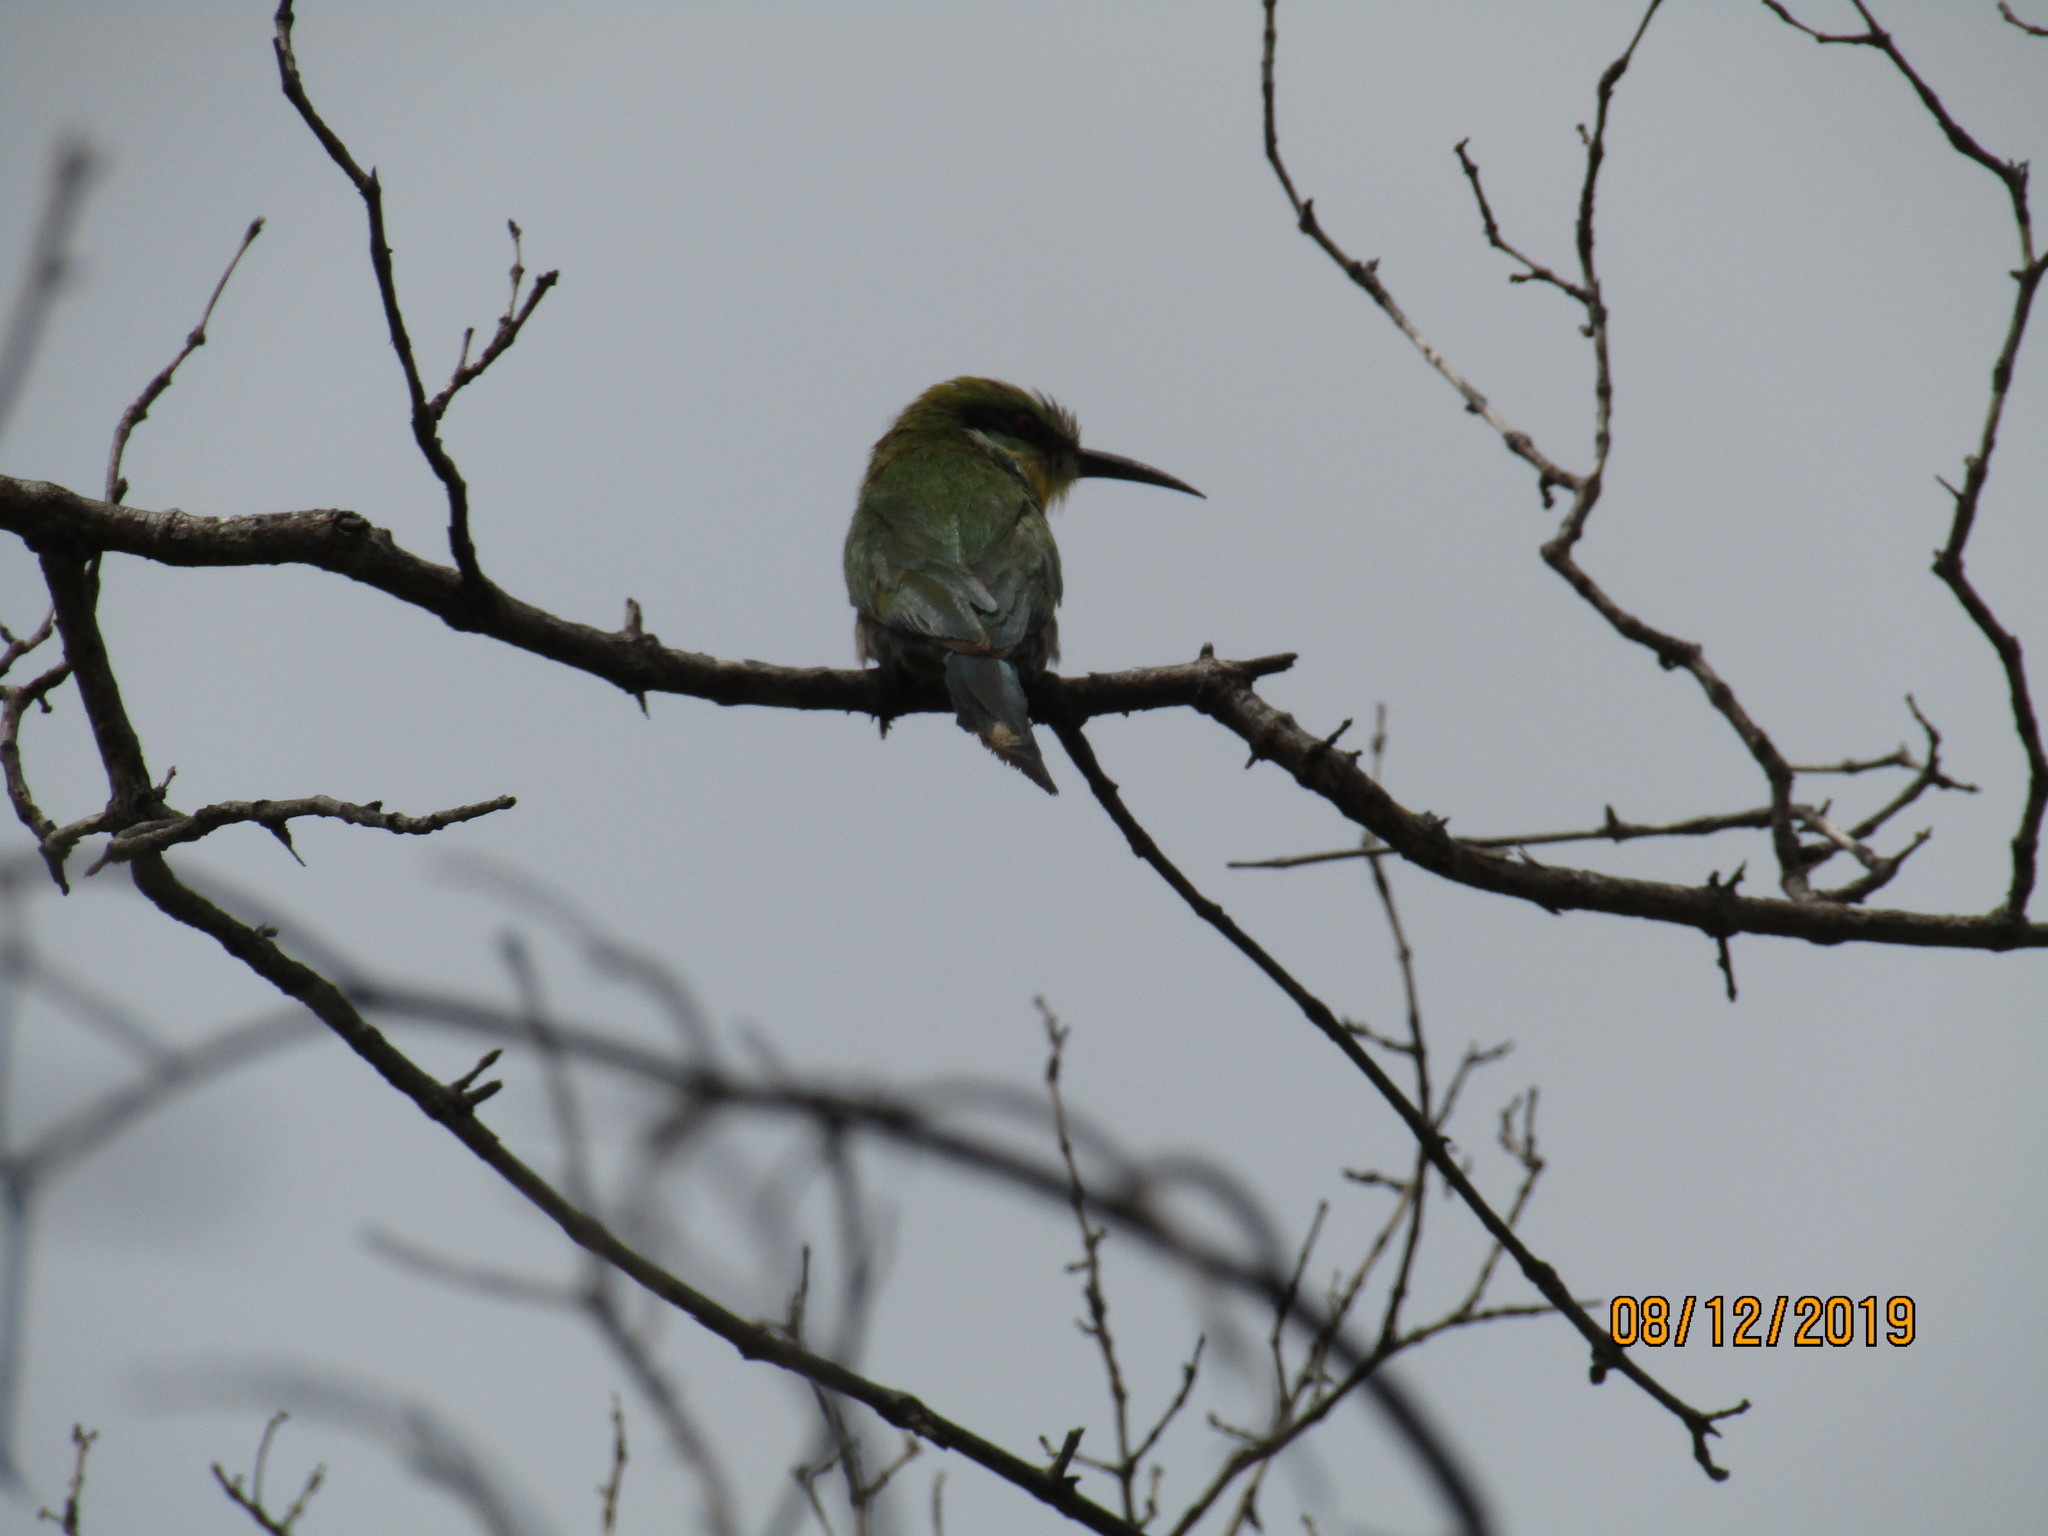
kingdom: Animalia
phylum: Chordata
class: Aves
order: Coraciiformes
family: Meropidae
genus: Merops
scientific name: Merops hirundineus
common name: Swallow-tailed bee-eater
